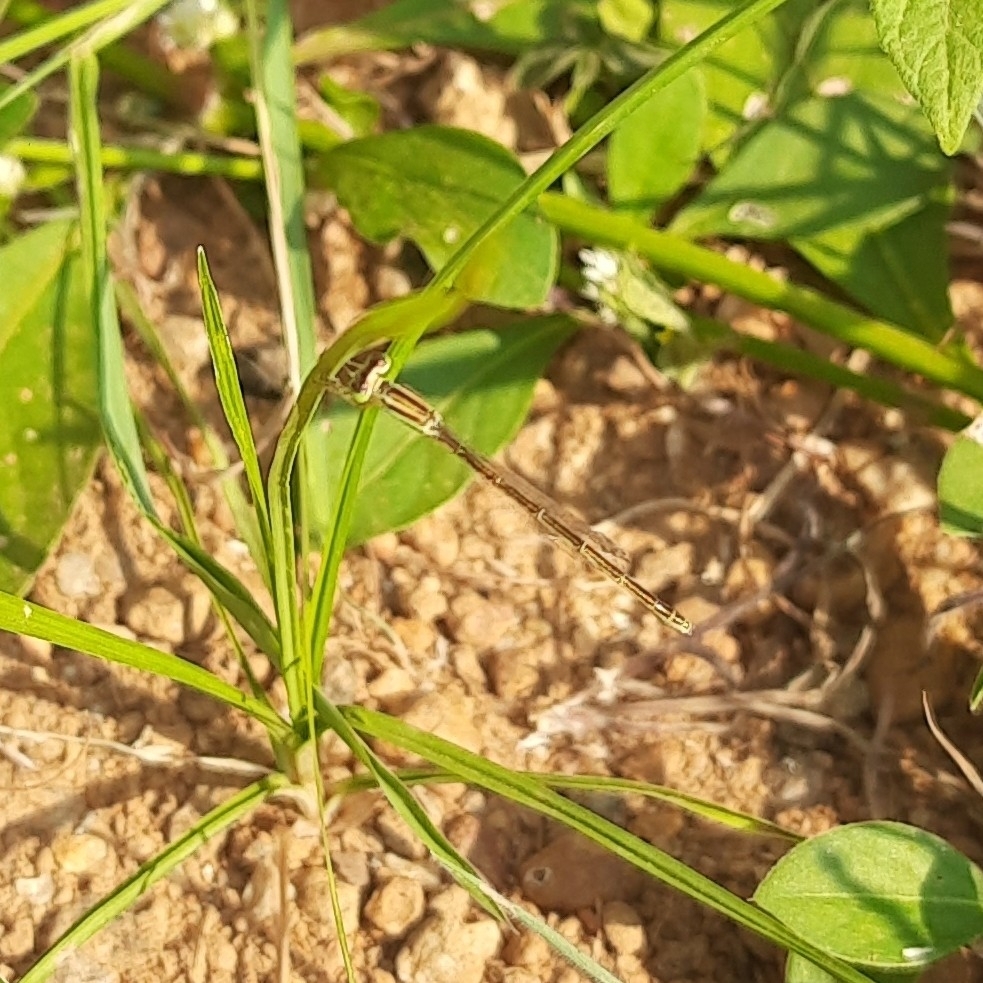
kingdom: Animalia
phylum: Arthropoda
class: Insecta
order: Odonata
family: Coenagrionidae
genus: Ischnura
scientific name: Ischnura rubilio
